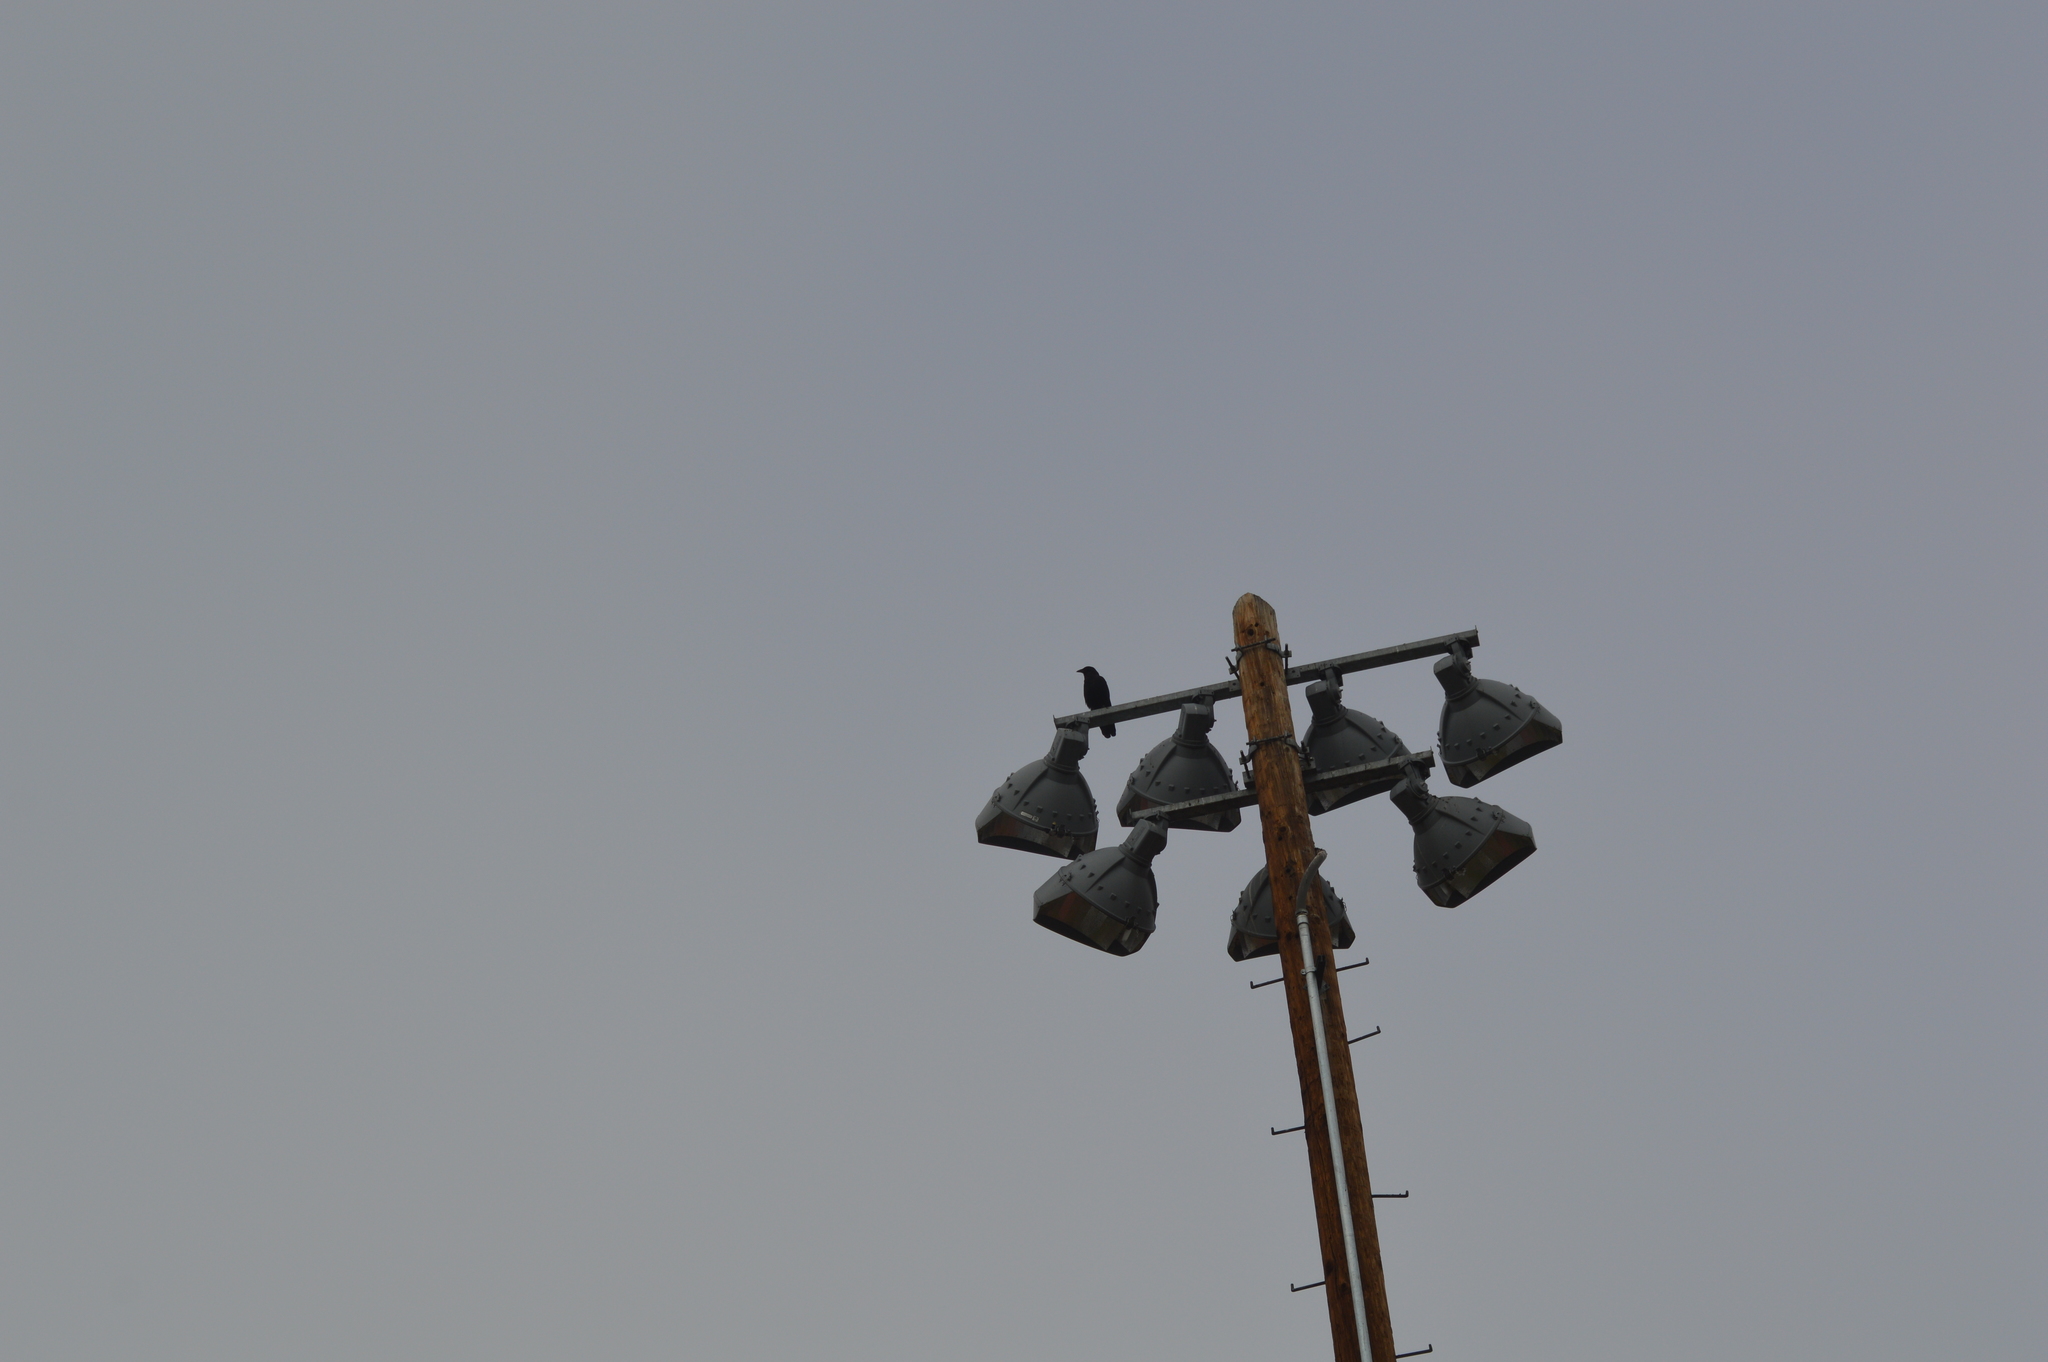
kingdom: Animalia
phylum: Chordata
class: Aves
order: Passeriformes
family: Corvidae
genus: Corvus
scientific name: Corvus brachyrhynchos
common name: American crow
